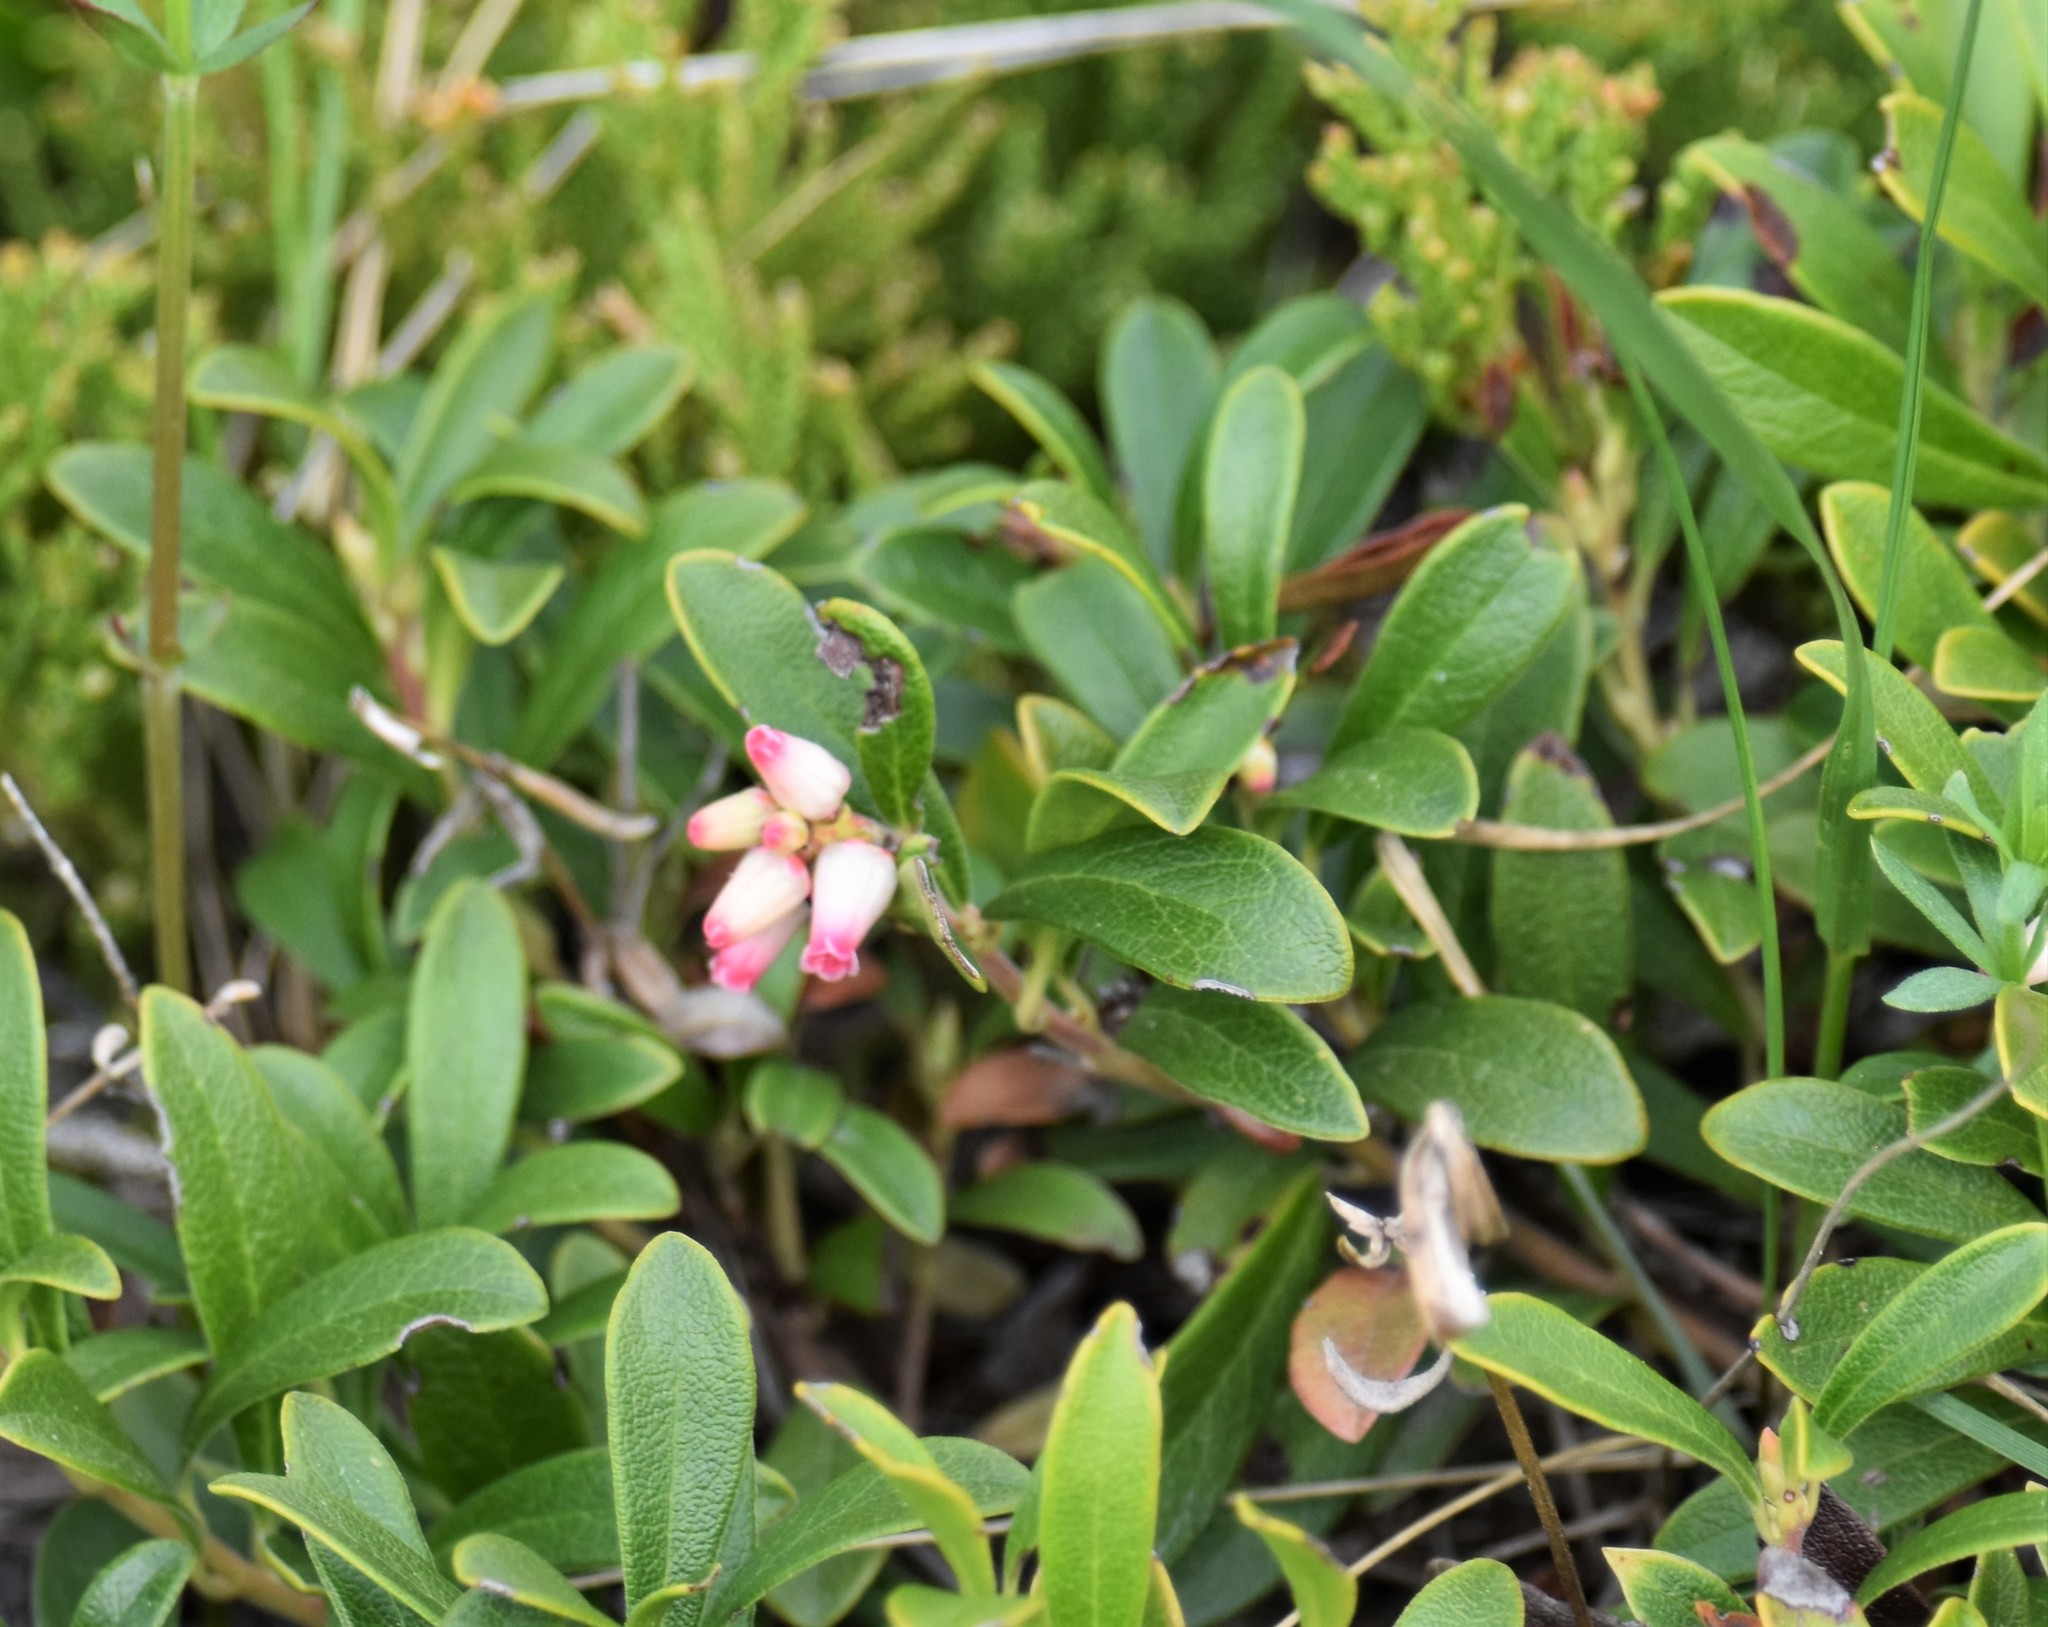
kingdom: Plantae
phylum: Tracheophyta
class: Magnoliopsida
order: Ericales
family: Ericaceae
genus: Arctostaphylos
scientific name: Arctostaphylos uva-ursi
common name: Bearberry
